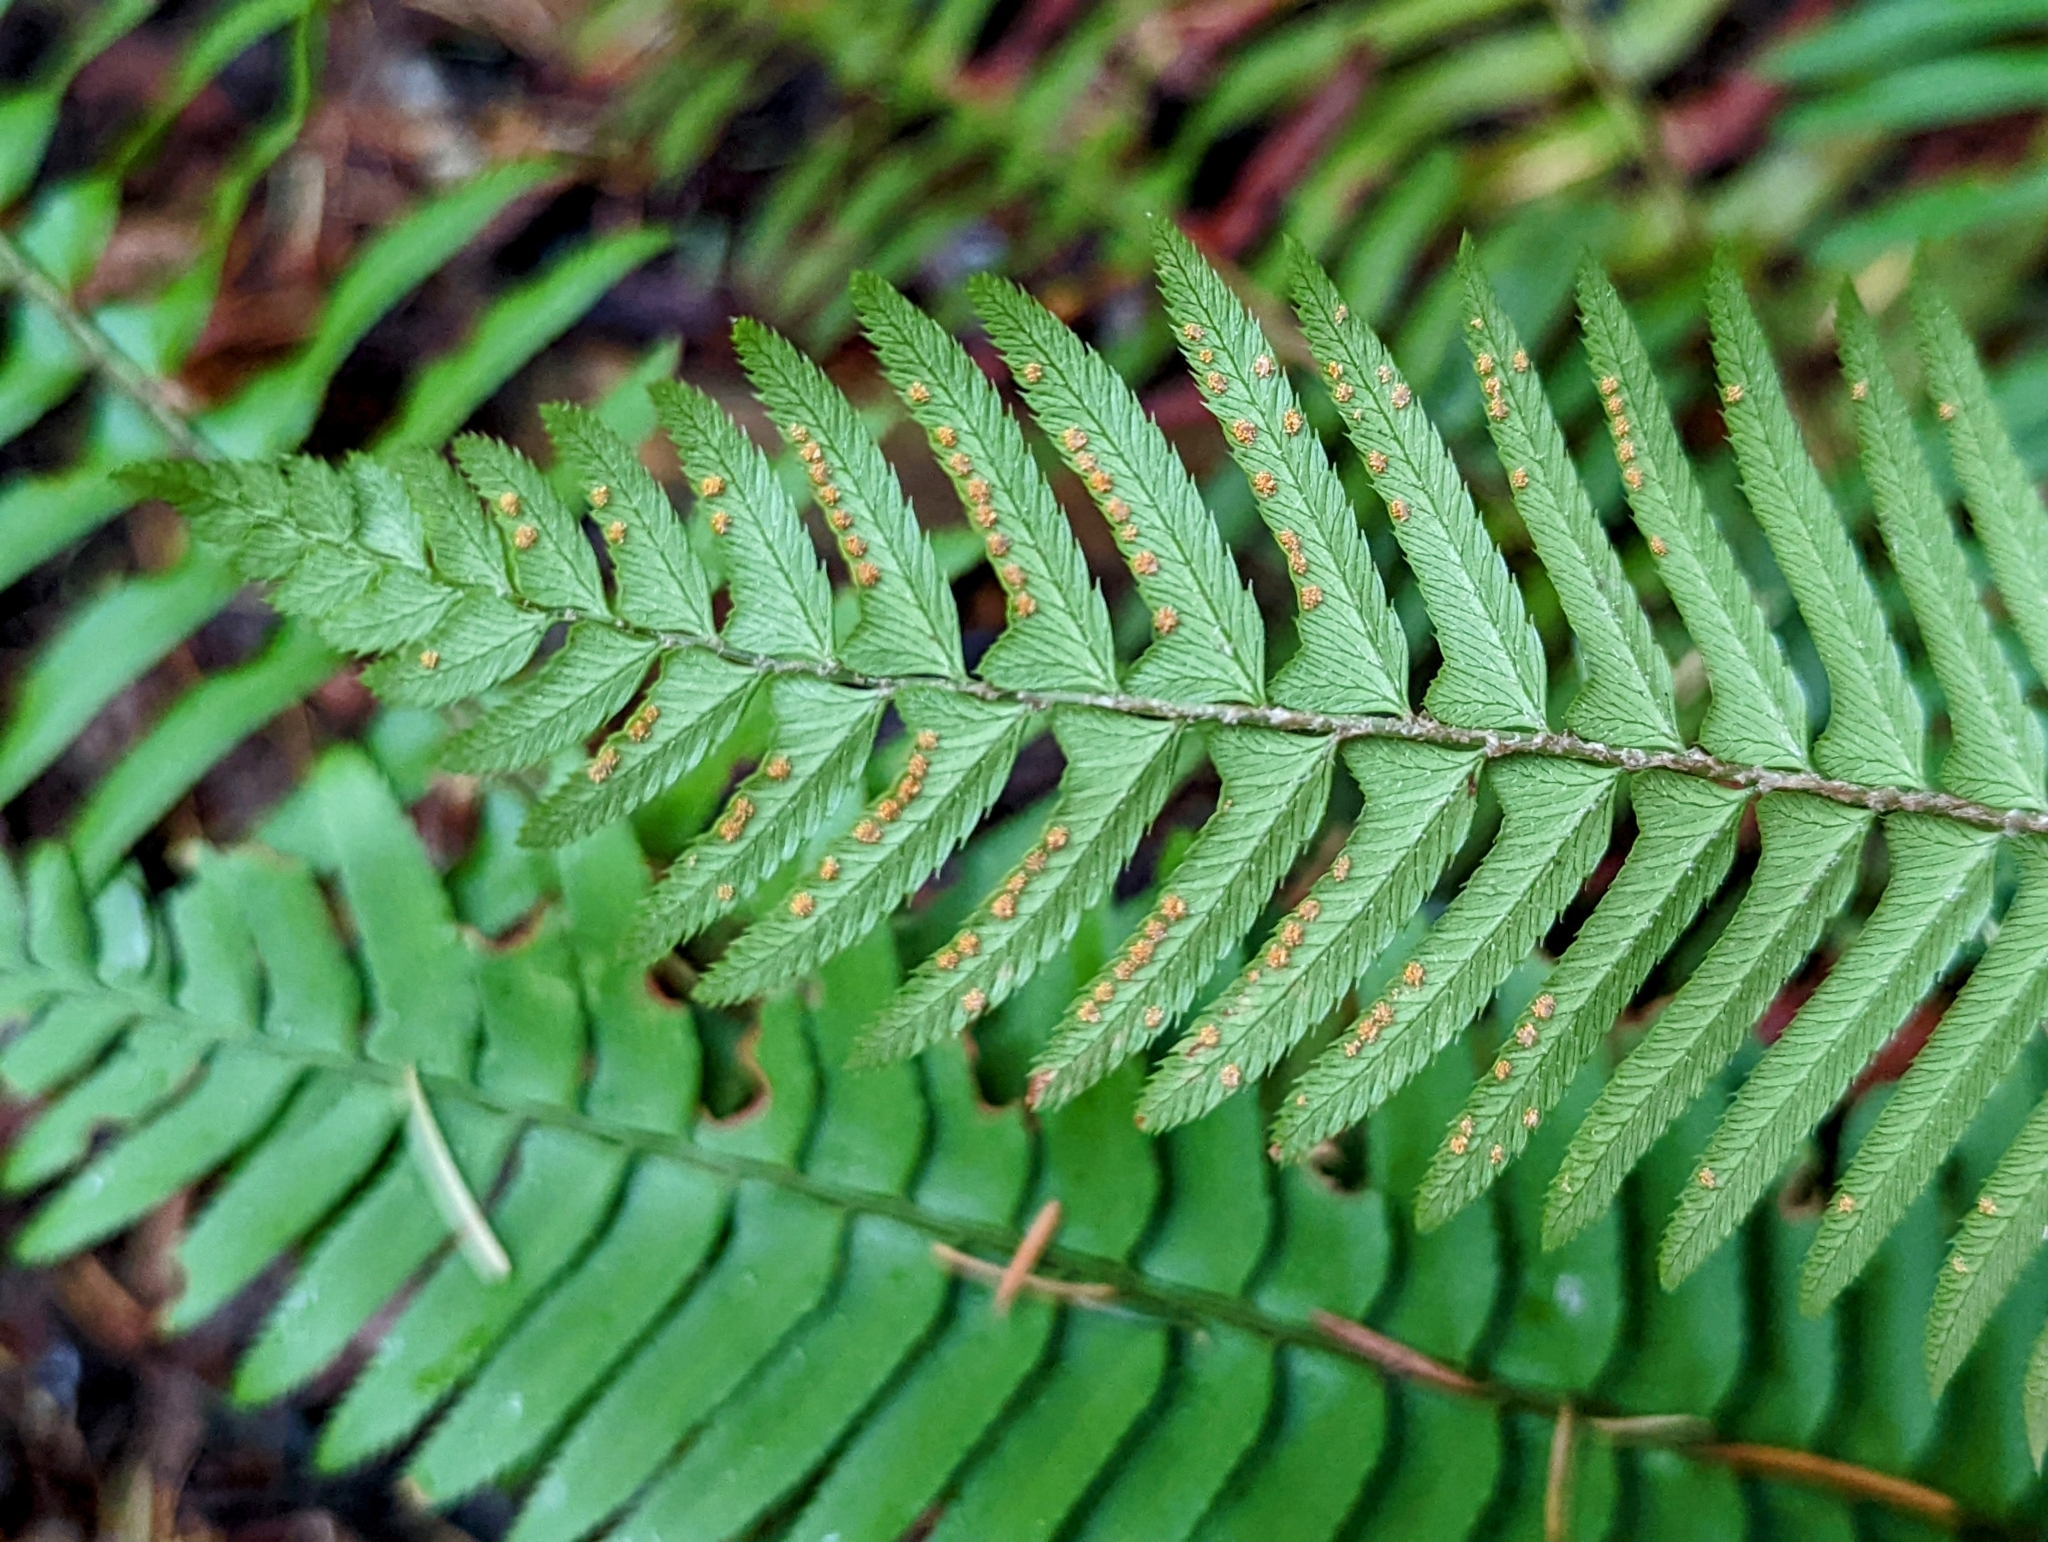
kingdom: Plantae
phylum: Tracheophyta
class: Polypodiopsida
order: Polypodiales
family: Dryopteridaceae
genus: Polystichum
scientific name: Polystichum munitum
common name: Western sword-fern
